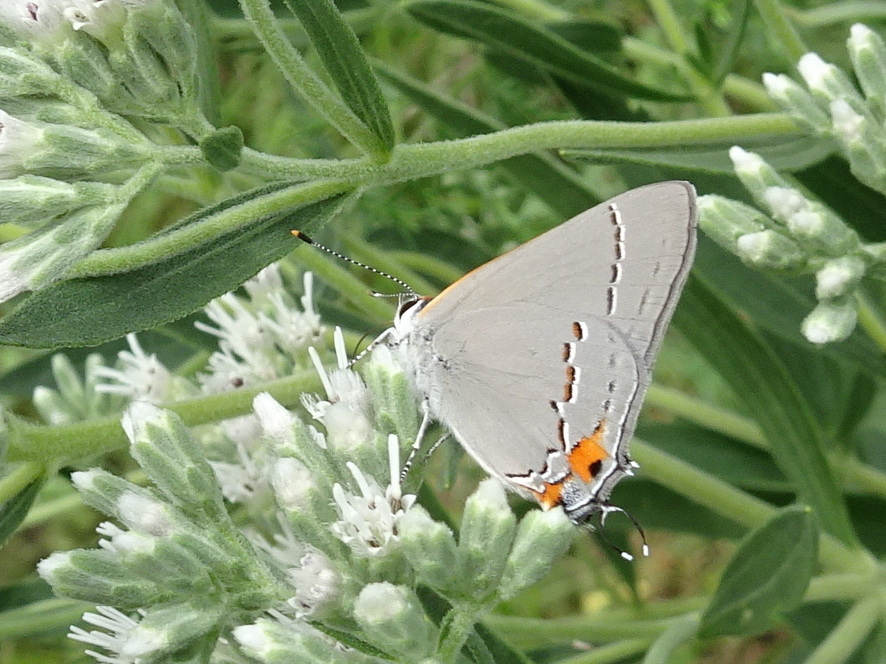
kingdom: Animalia
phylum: Arthropoda
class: Insecta
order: Lepidoptera
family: Lycaenidae
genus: Strymon
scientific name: Strymon melinus
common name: Gray hairstreak
